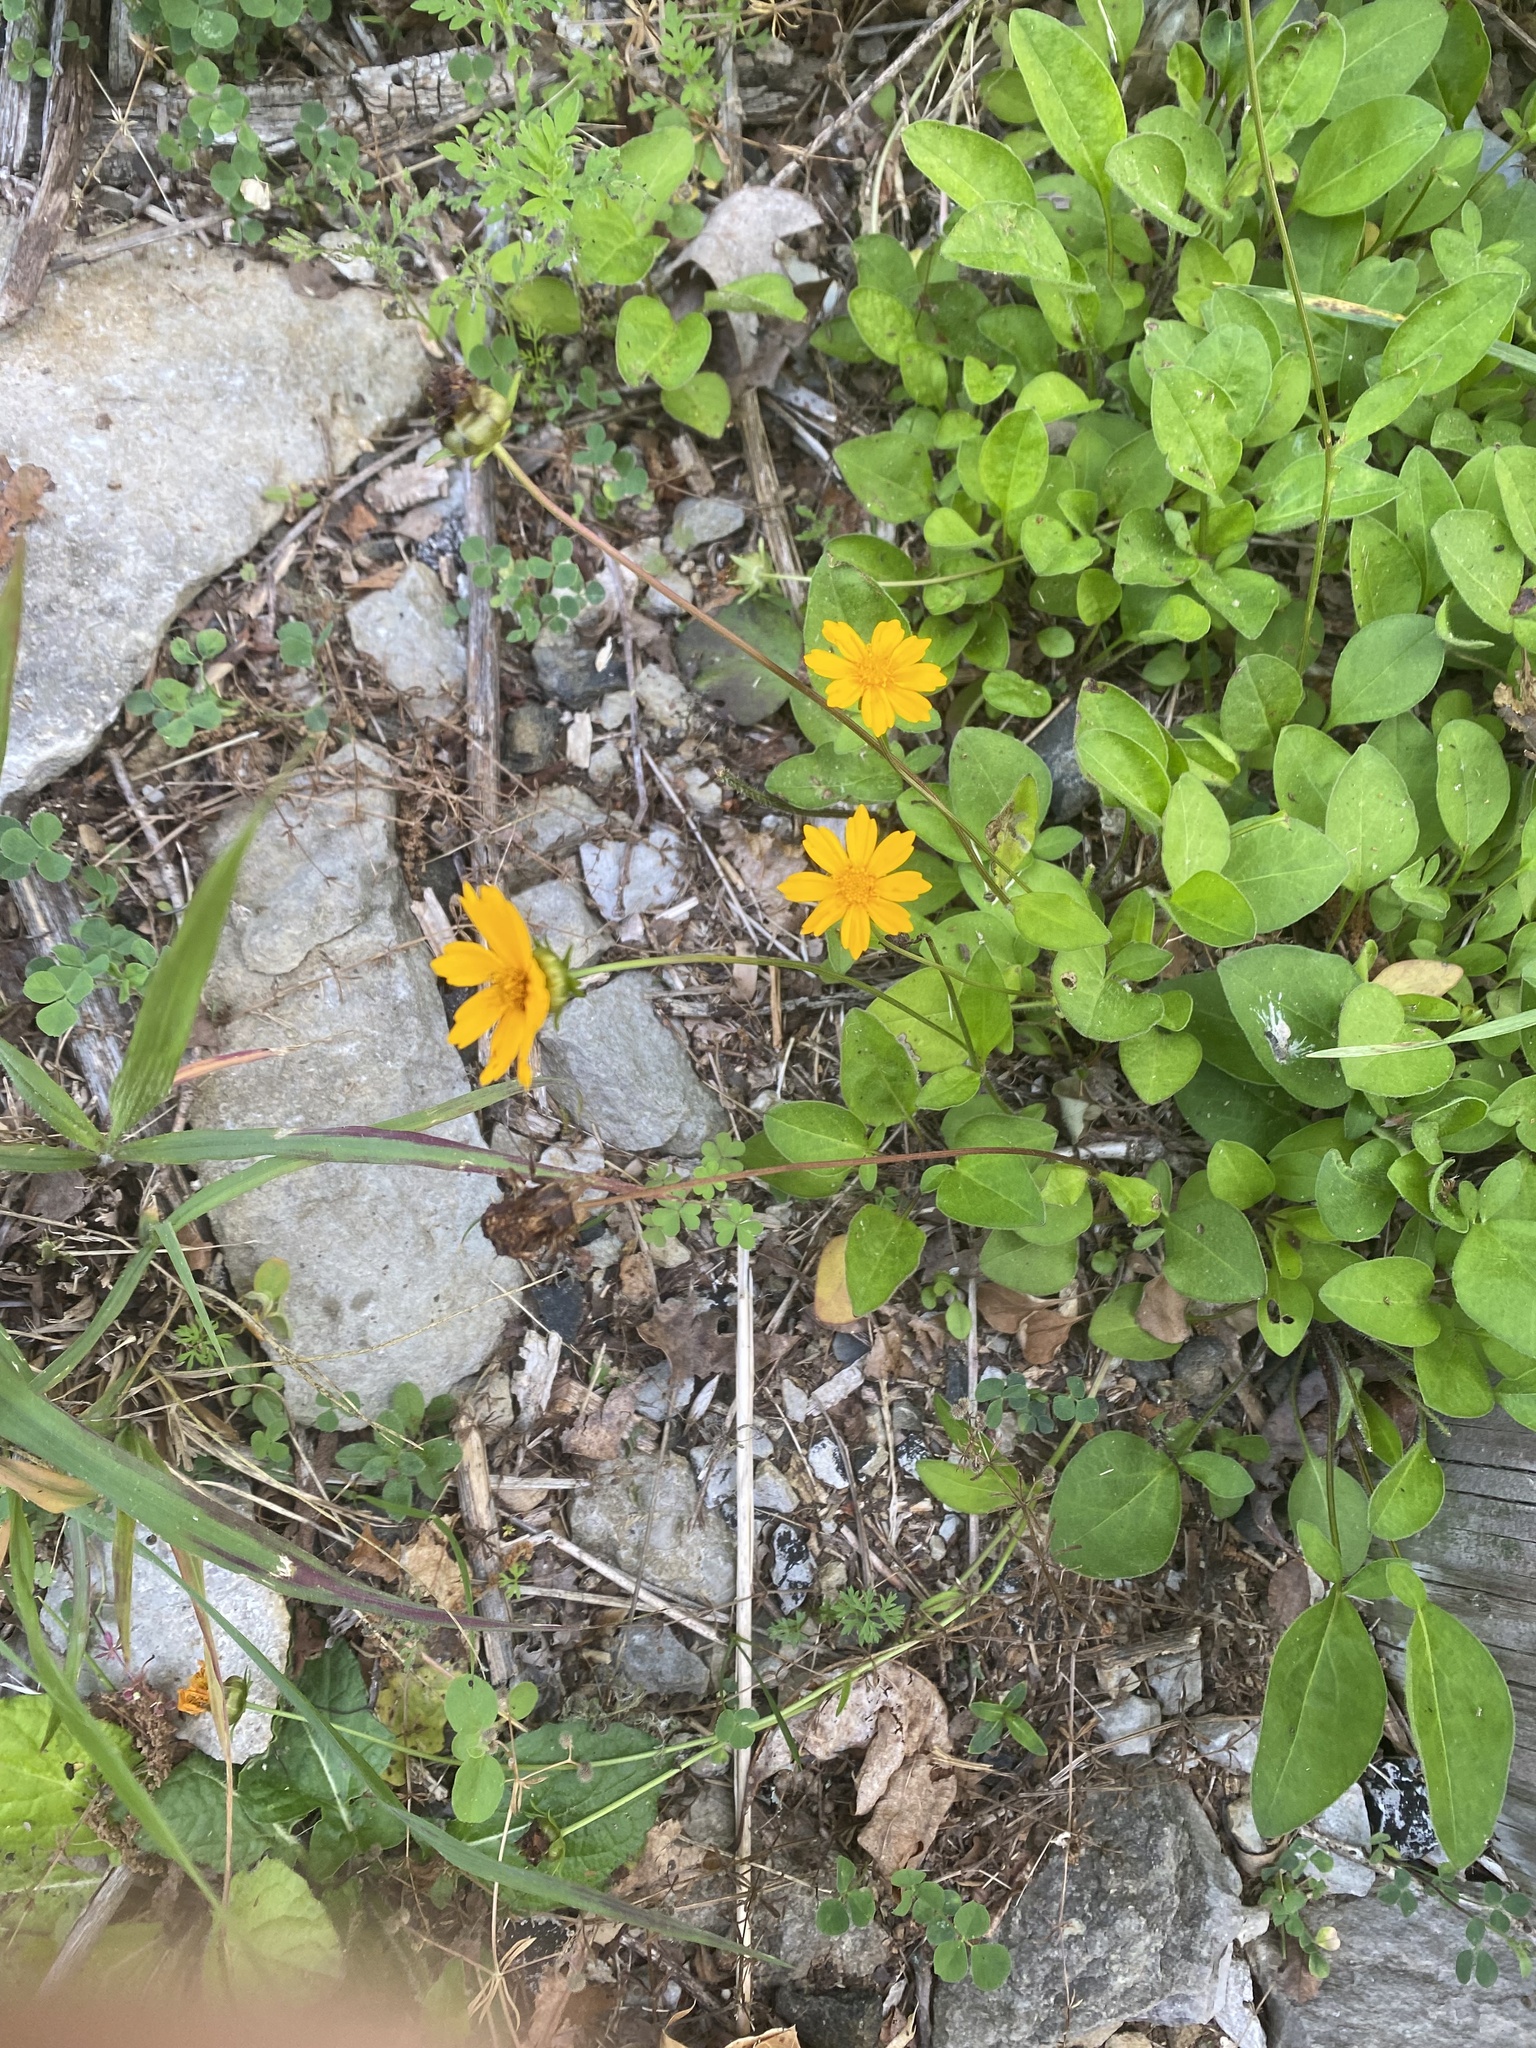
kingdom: Plantae
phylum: Tracheophyta
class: Magnoliopsida
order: Asterales
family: Asteraceae
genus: Coreopsis
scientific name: Coreopsis auriculata
